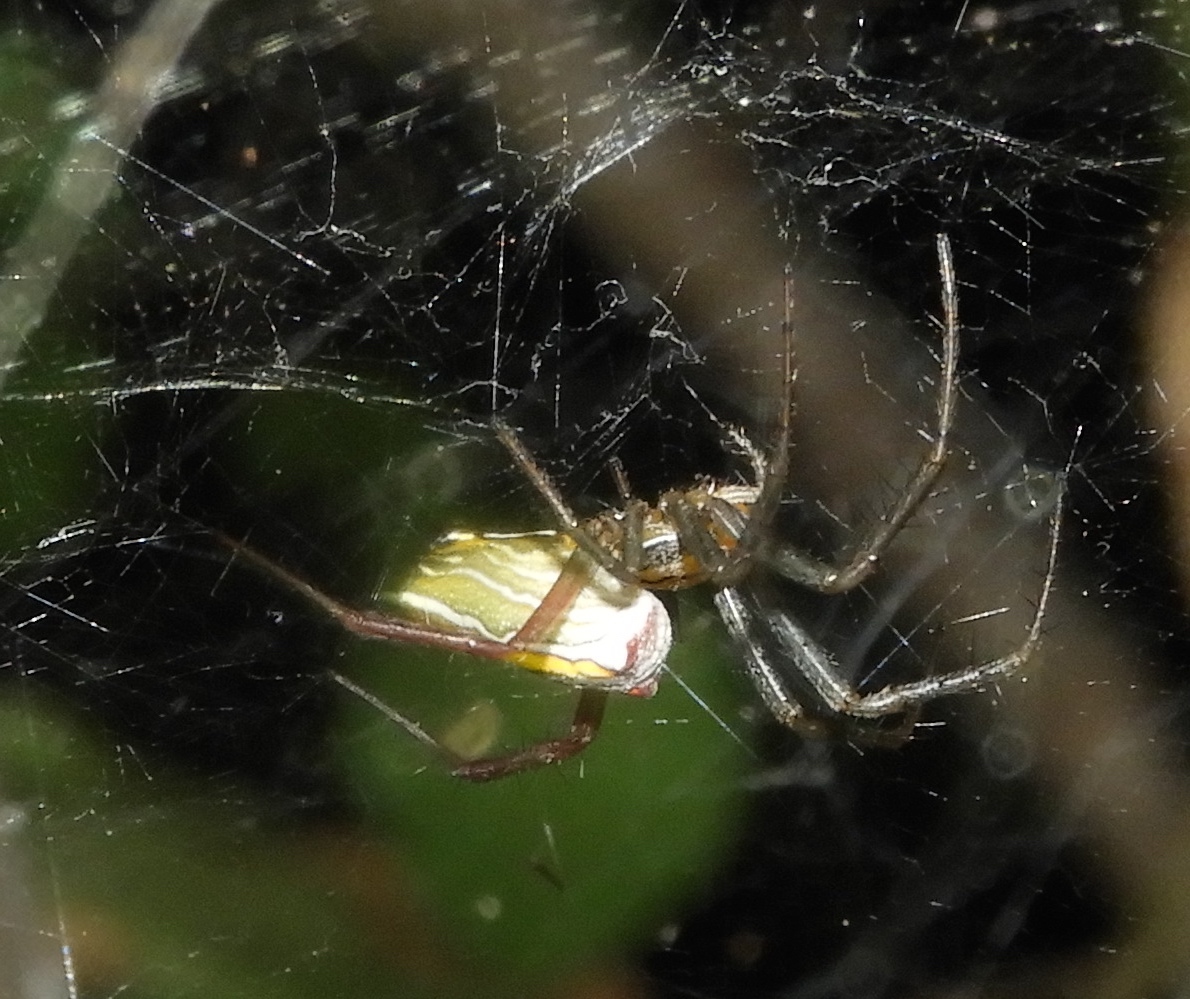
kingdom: Animalia
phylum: Arthropoda
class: Arachnida
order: Araneae
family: Araneidae
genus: Mecynogea
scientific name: Mecynogea lemniscata
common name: Orb weavers
